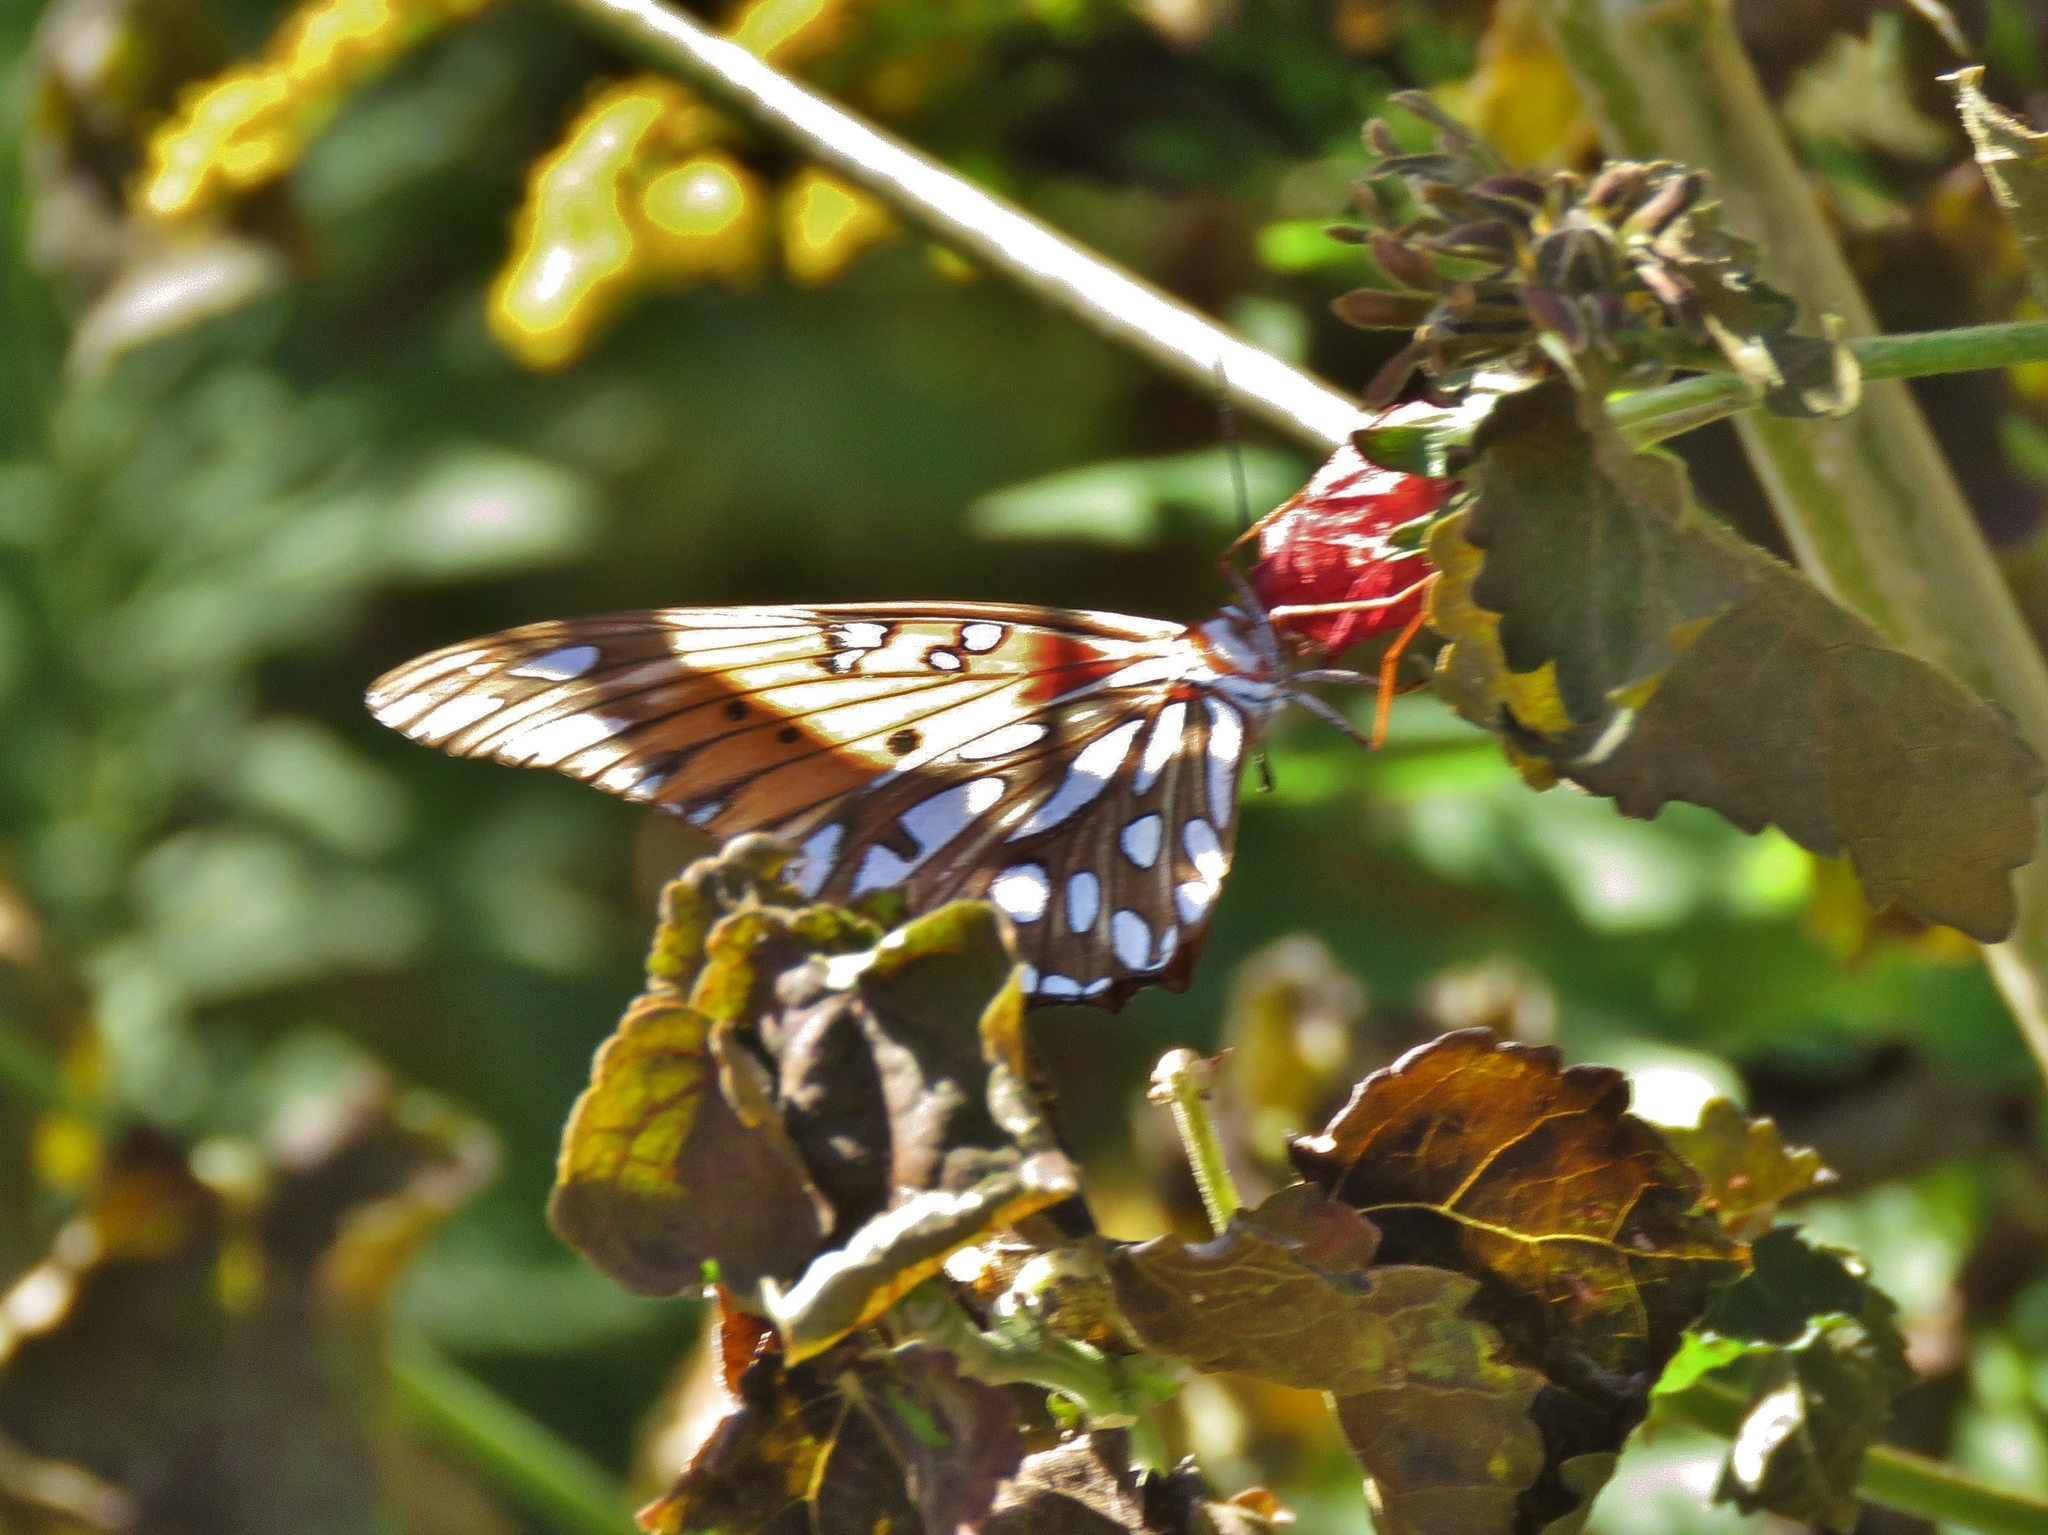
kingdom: Animalia
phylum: Arthropoda
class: Insecta
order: Lepidoptera
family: Nymphalidae
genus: Dione
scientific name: Dione vanillae
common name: Gulf fritillary
